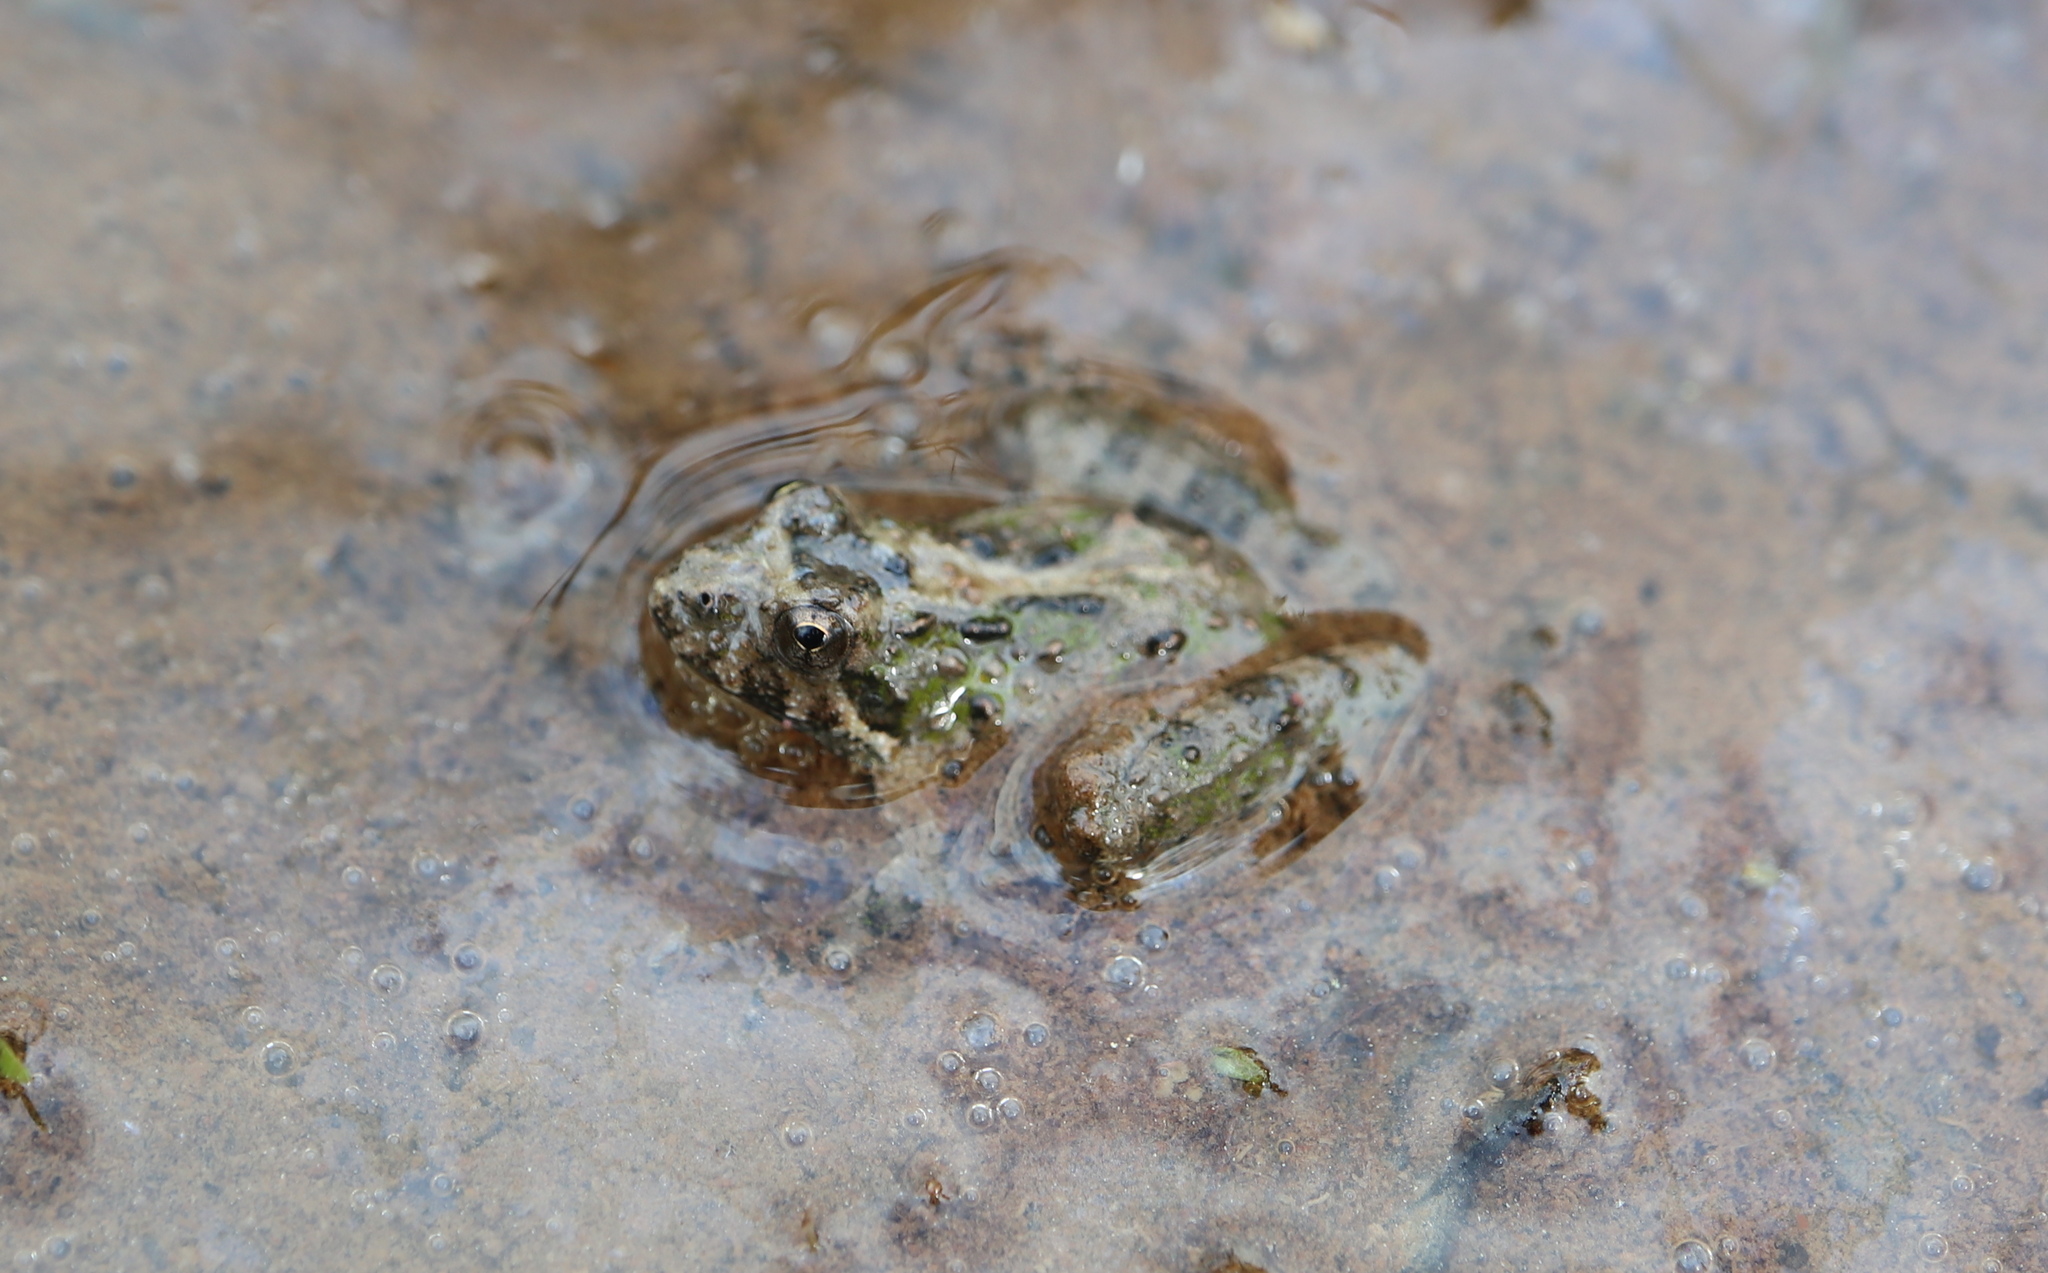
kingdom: Animalia
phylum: Chordata
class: Amphibia
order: Anura
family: Hylidae
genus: Acris
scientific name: Acris crepitans
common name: Northern cricket frog
